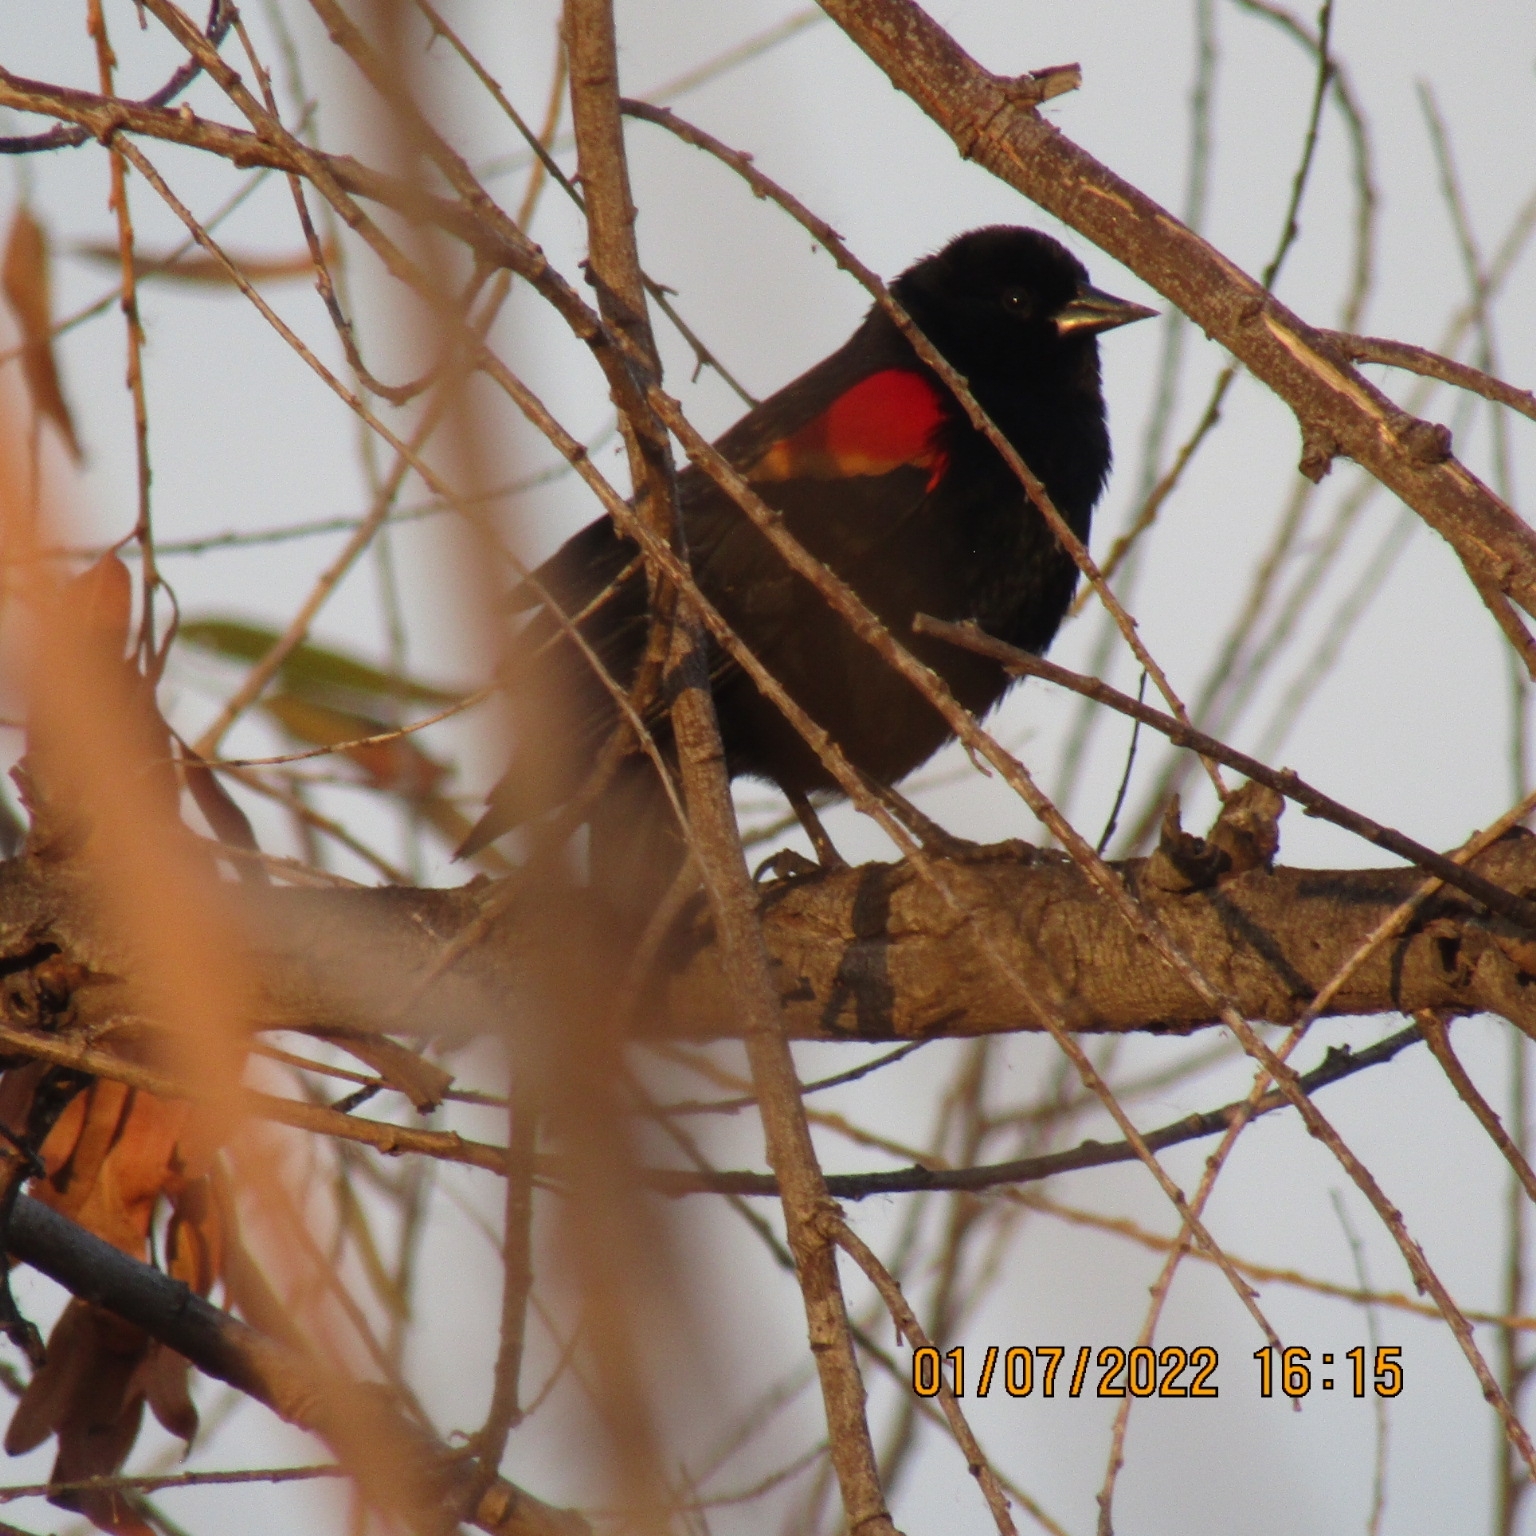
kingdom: Animalia
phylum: Chordata
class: Aves
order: Passeriformes
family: Icteridae
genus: Agelaius
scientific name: Agelaius phoeniceus
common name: Red-winged blackbird
